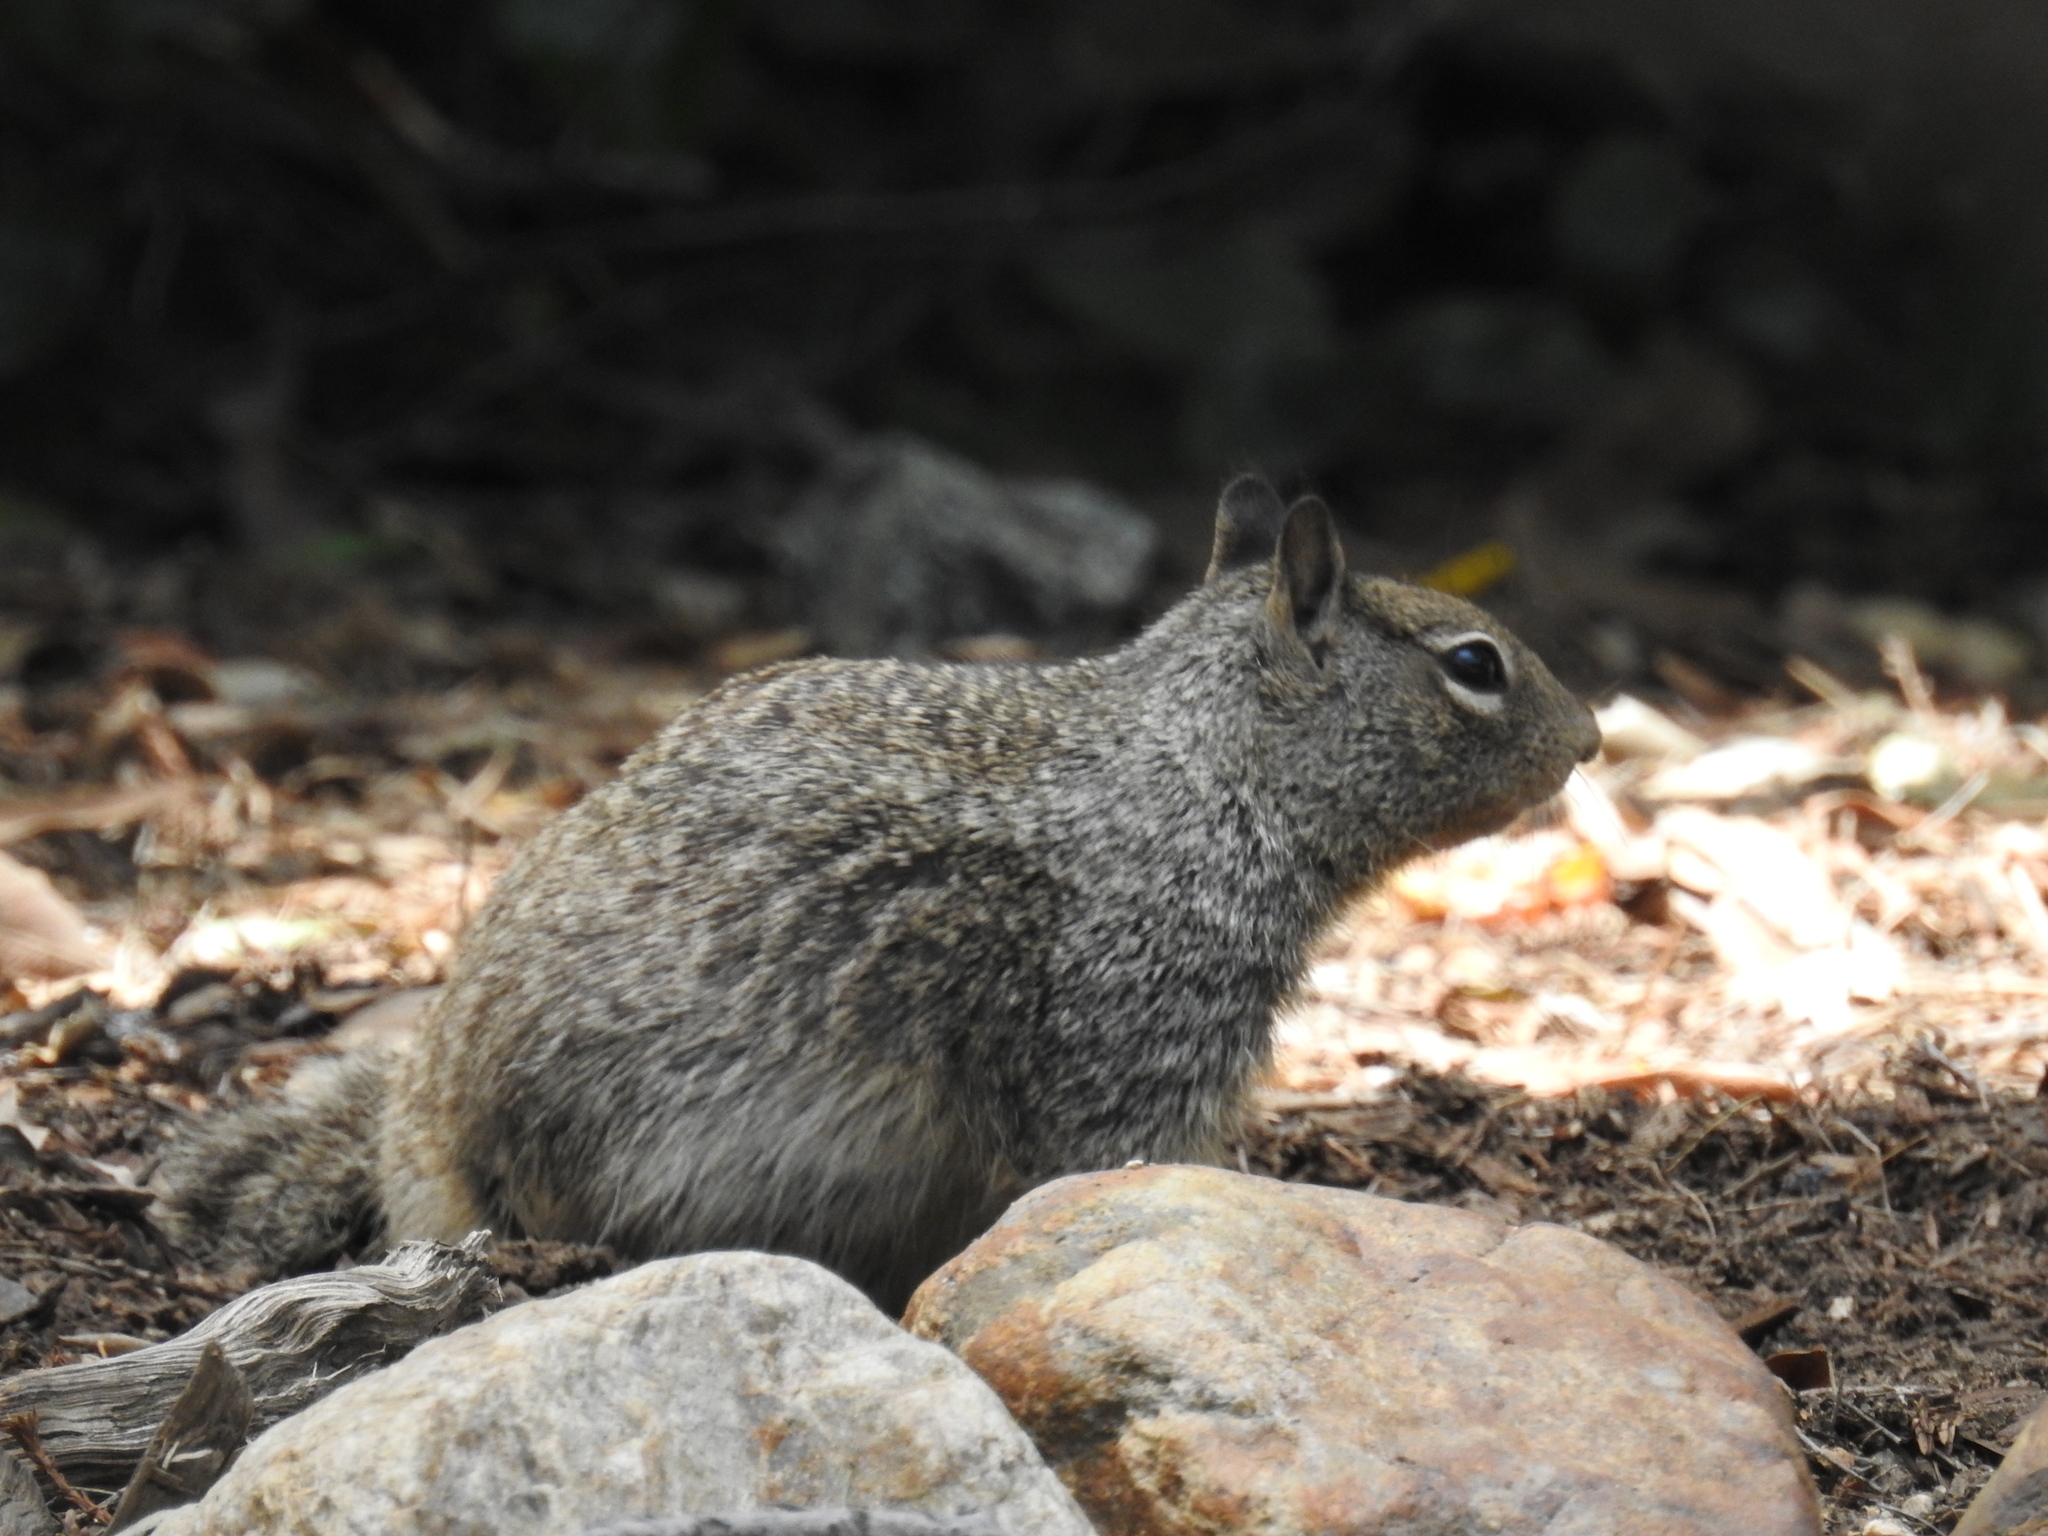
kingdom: Animalia
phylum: Chordata
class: Mammalia
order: Rodentia
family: Sciuridae
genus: Otospermophilus
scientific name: Otospermophilus beecheyi
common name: California ground squirrel
